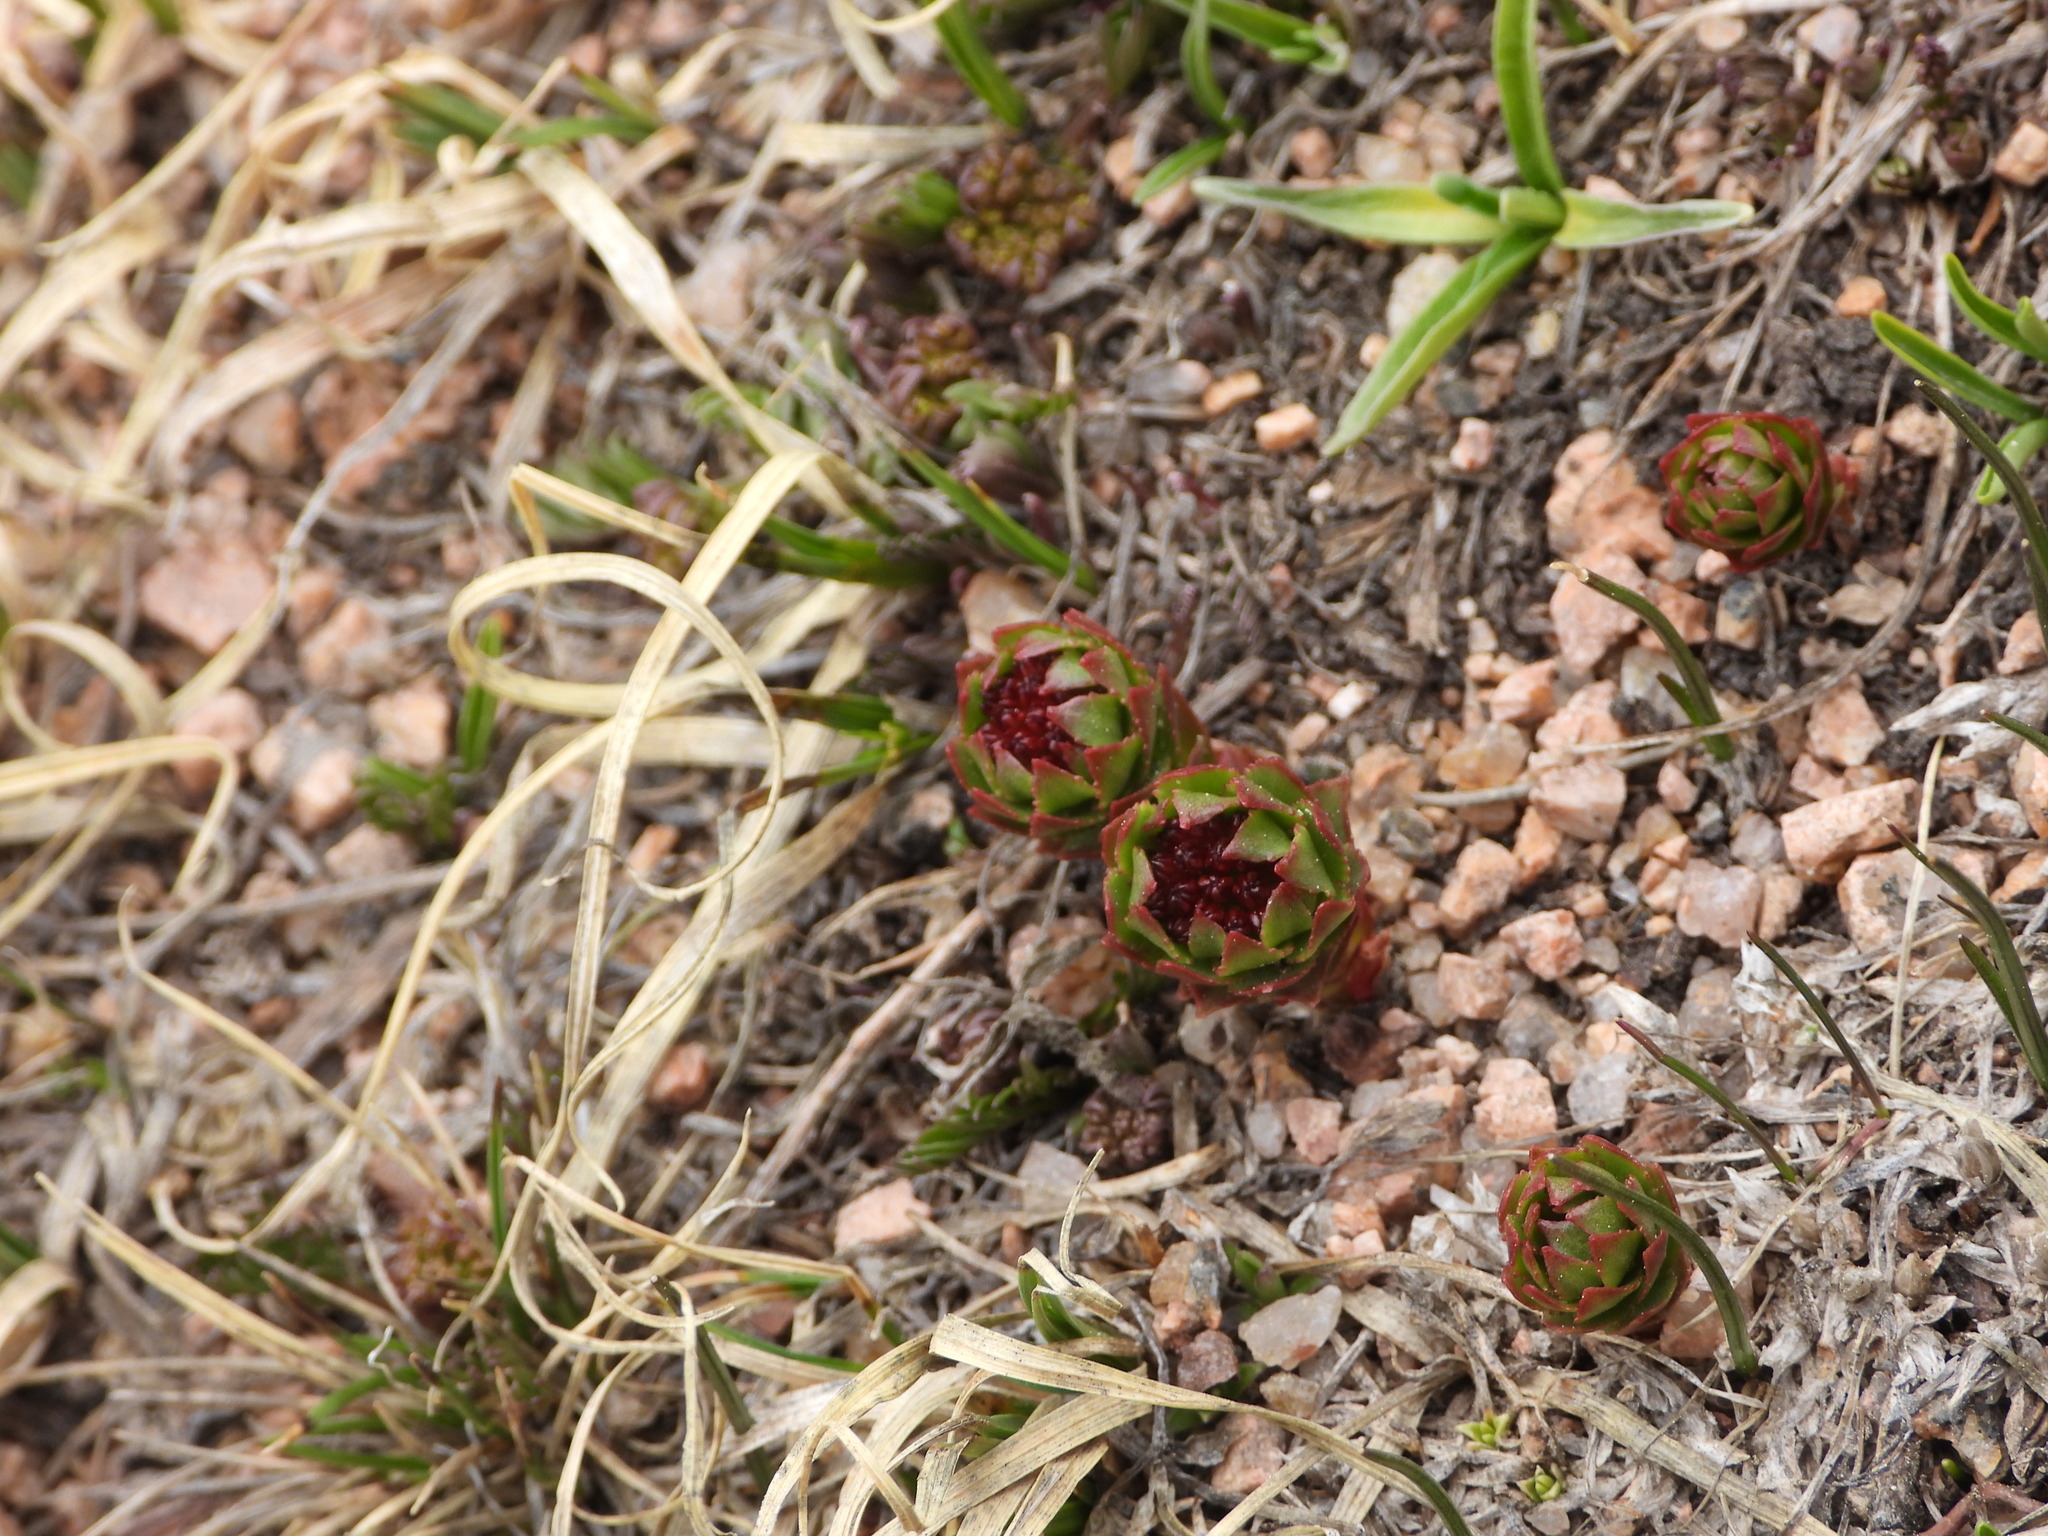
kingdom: Plantae
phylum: Tracheophyta
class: Magnoliopsida
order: Saxifragales
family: Crassulaceae
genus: Rhodiola
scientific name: Rhodiola integrifolia
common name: Western roseroot
